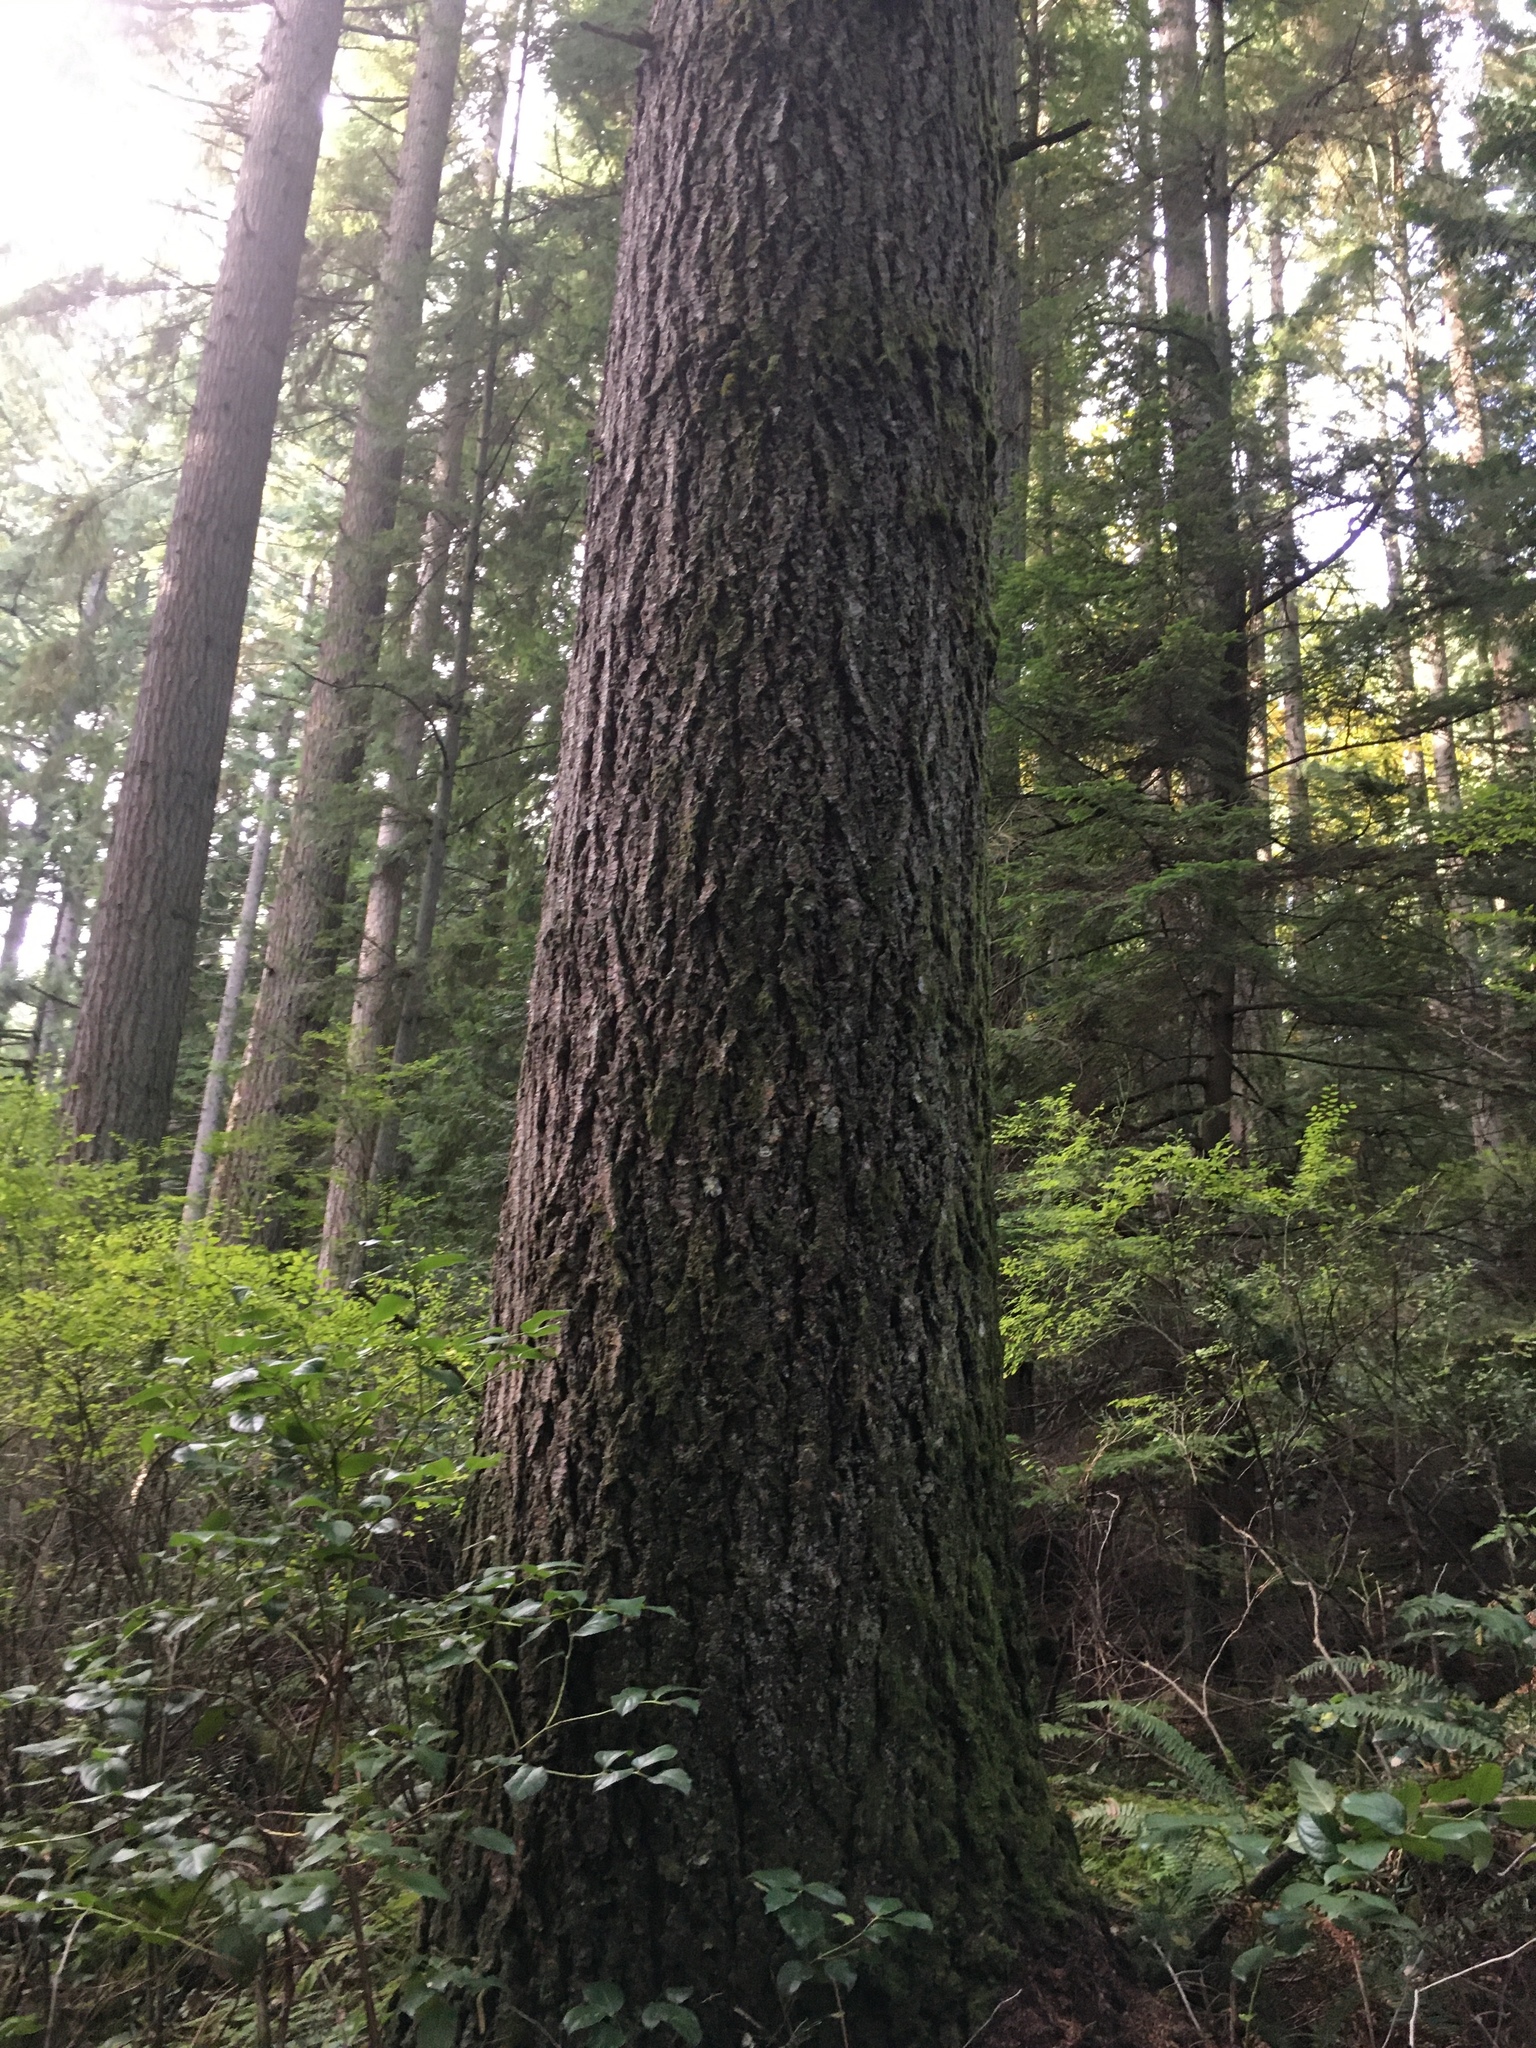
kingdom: Plantae
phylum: Tracheophyta
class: Pinopsida
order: Pinales
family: Pinaceae
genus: Tsuga
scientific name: Tsuga heterophylla
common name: Western hemlock
